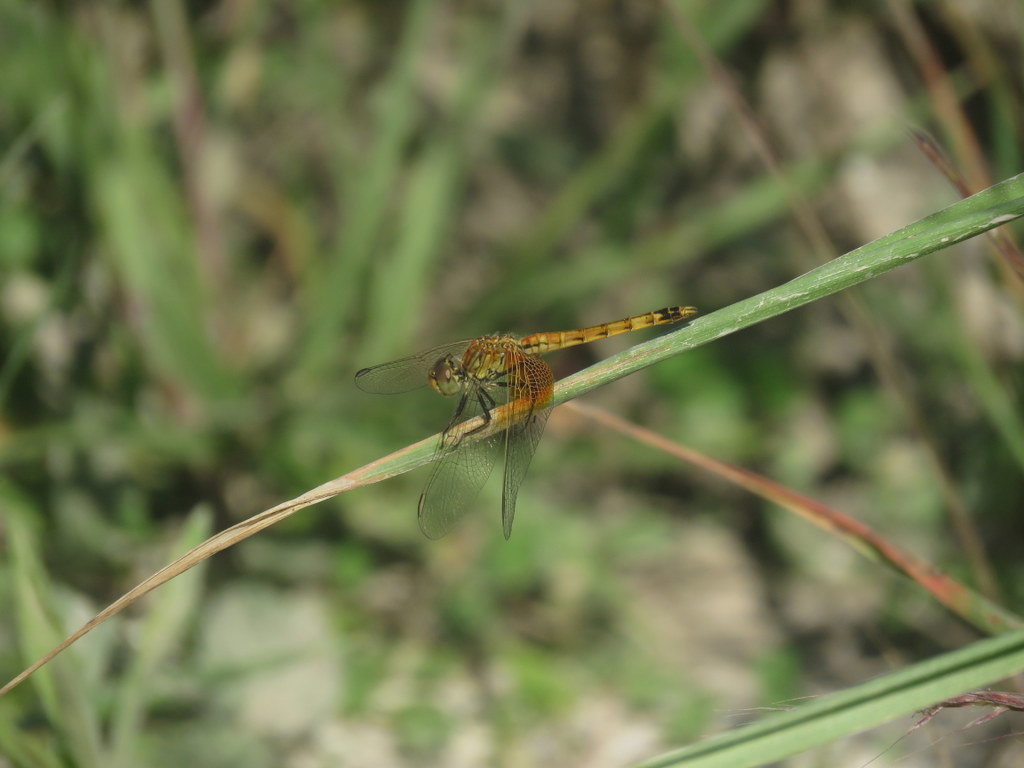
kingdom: Animalia
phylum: Arthropoda
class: Insecta
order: Odonata
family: Libellulidae
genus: Erythrodiplax
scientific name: Erythrodiplax corallina
